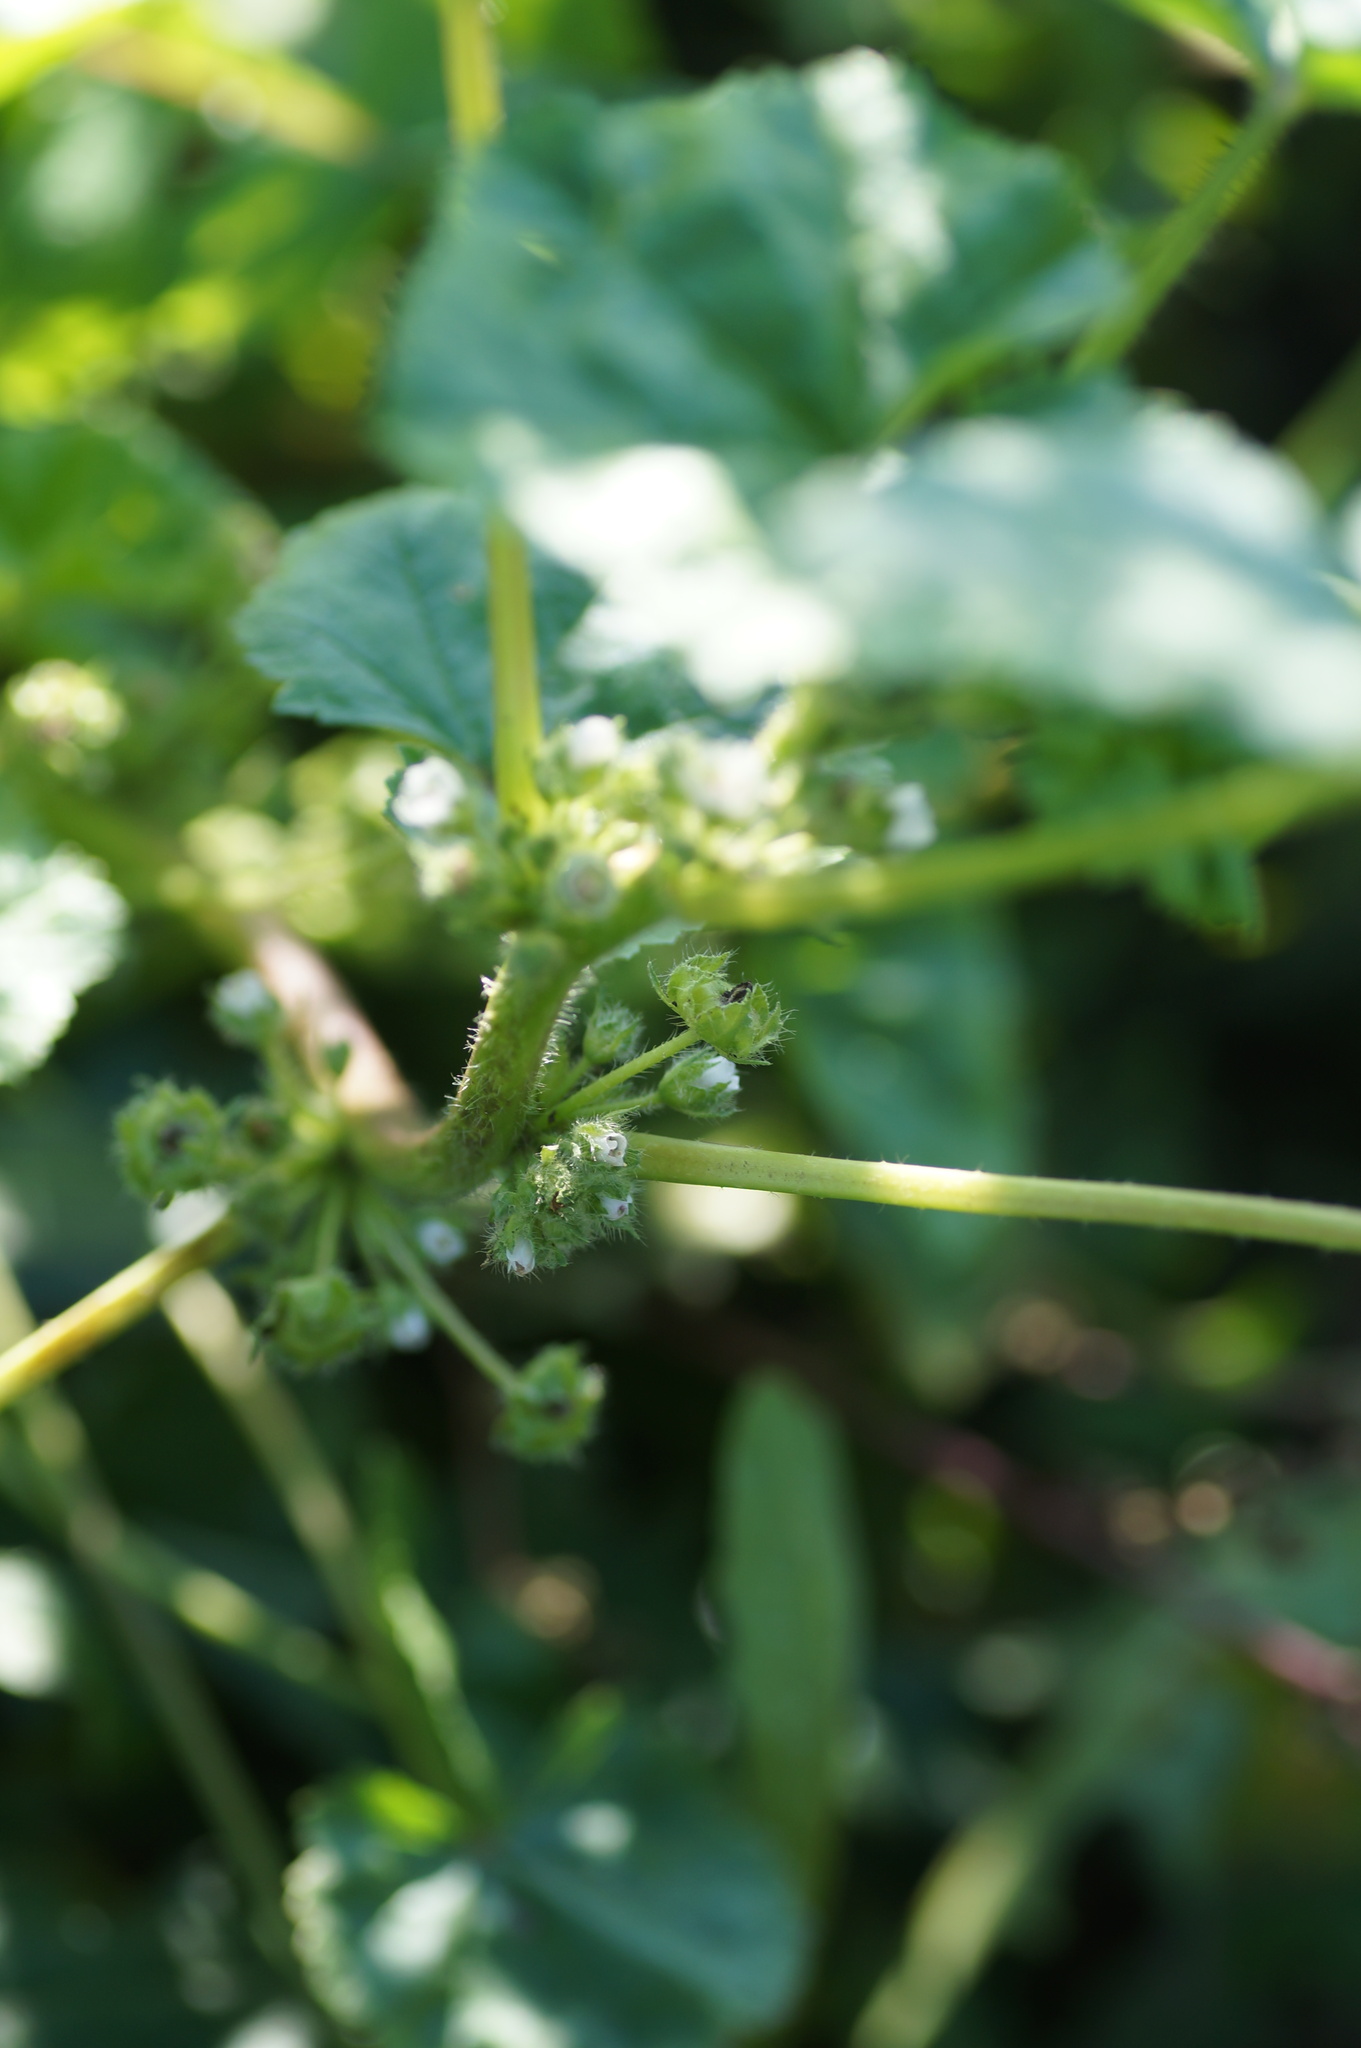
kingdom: Plantae
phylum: Tracheophyta
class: Magnoliopsida
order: Malvales
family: Malvaceae
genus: Malva
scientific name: Malva pusilla
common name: Small mallow
